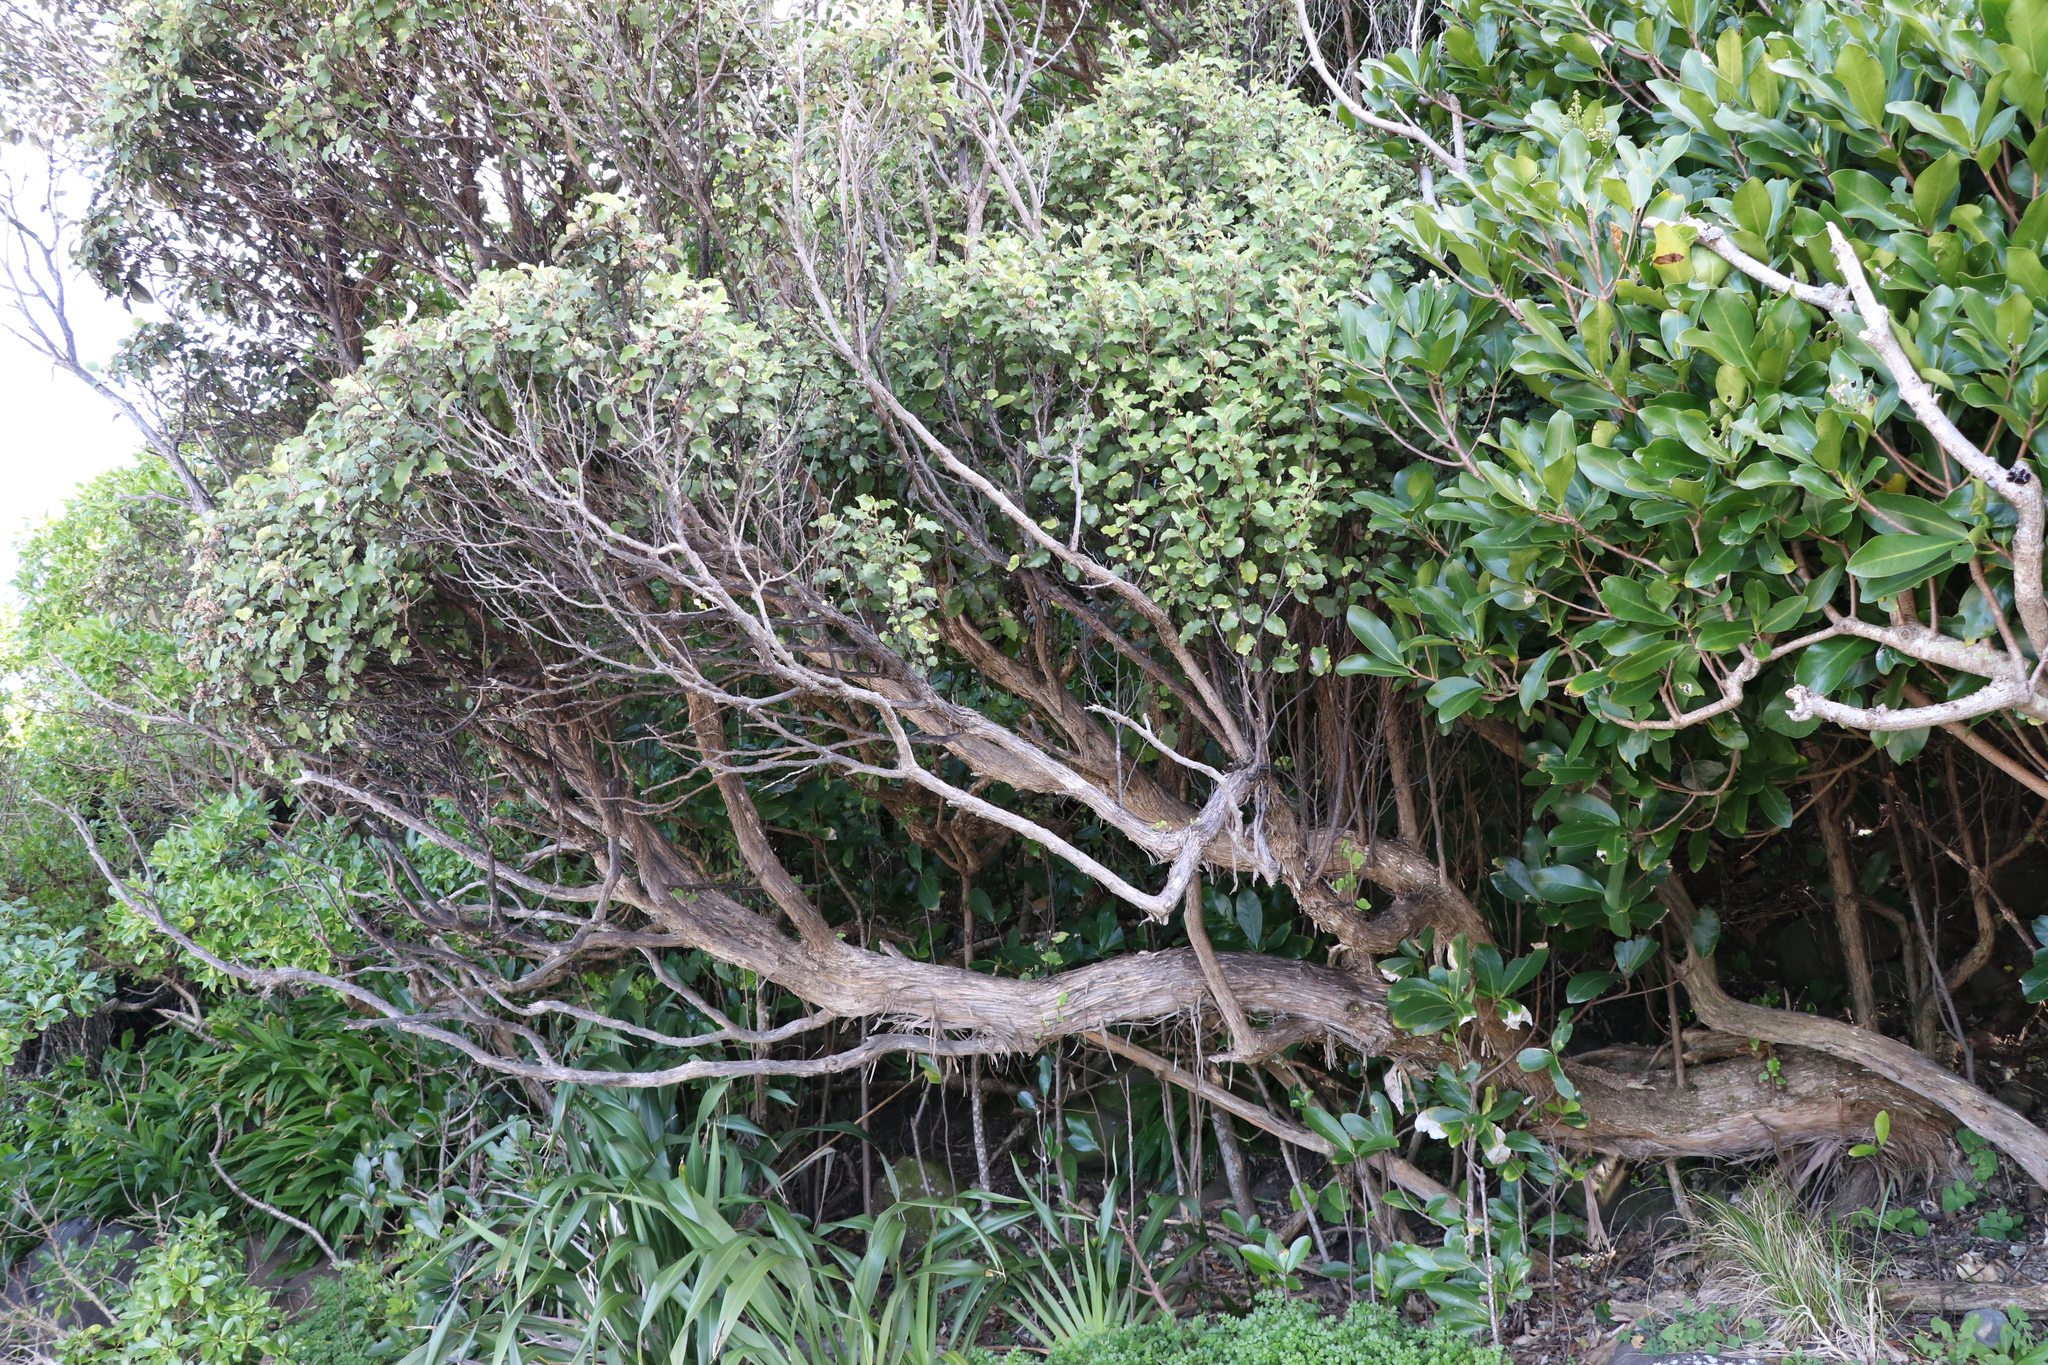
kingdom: Plantae
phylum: Tracheophyta
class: Magnoliopsida
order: Asterales
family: Asteraceae
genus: Olearia
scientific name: Olearia paniculata
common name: Akiraho
